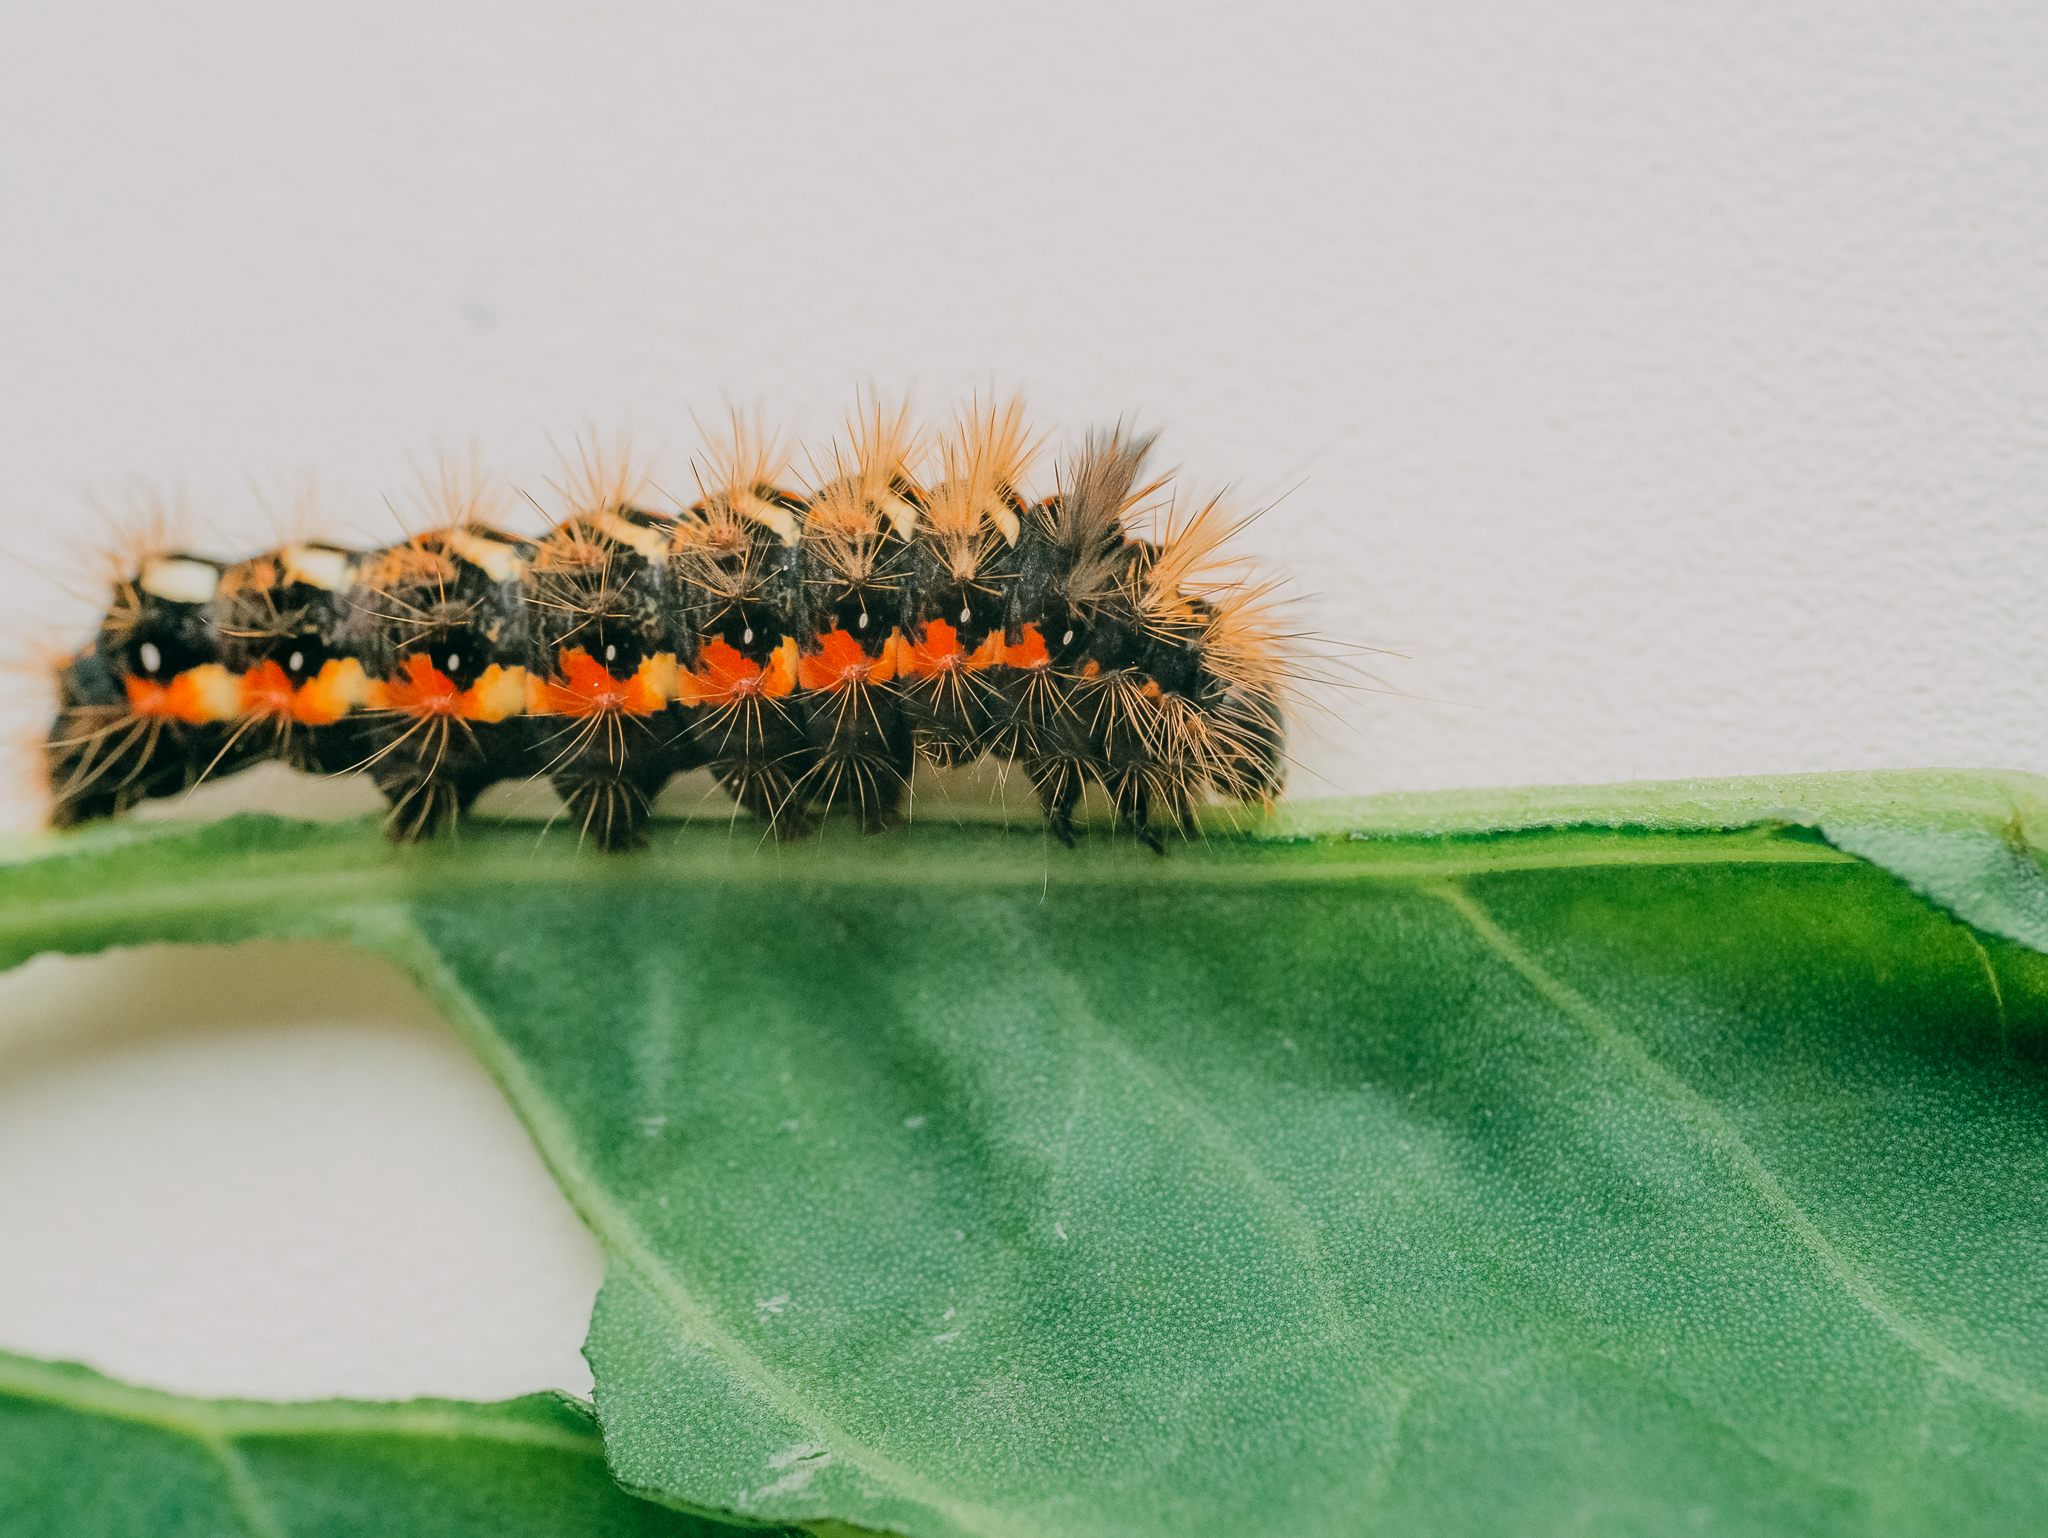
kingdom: Animalia
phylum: Arthropoda
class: Insecta
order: Lepidoptera
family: Noctuidae
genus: Acronicta
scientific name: Acronicta rumicis
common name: Knot grass
